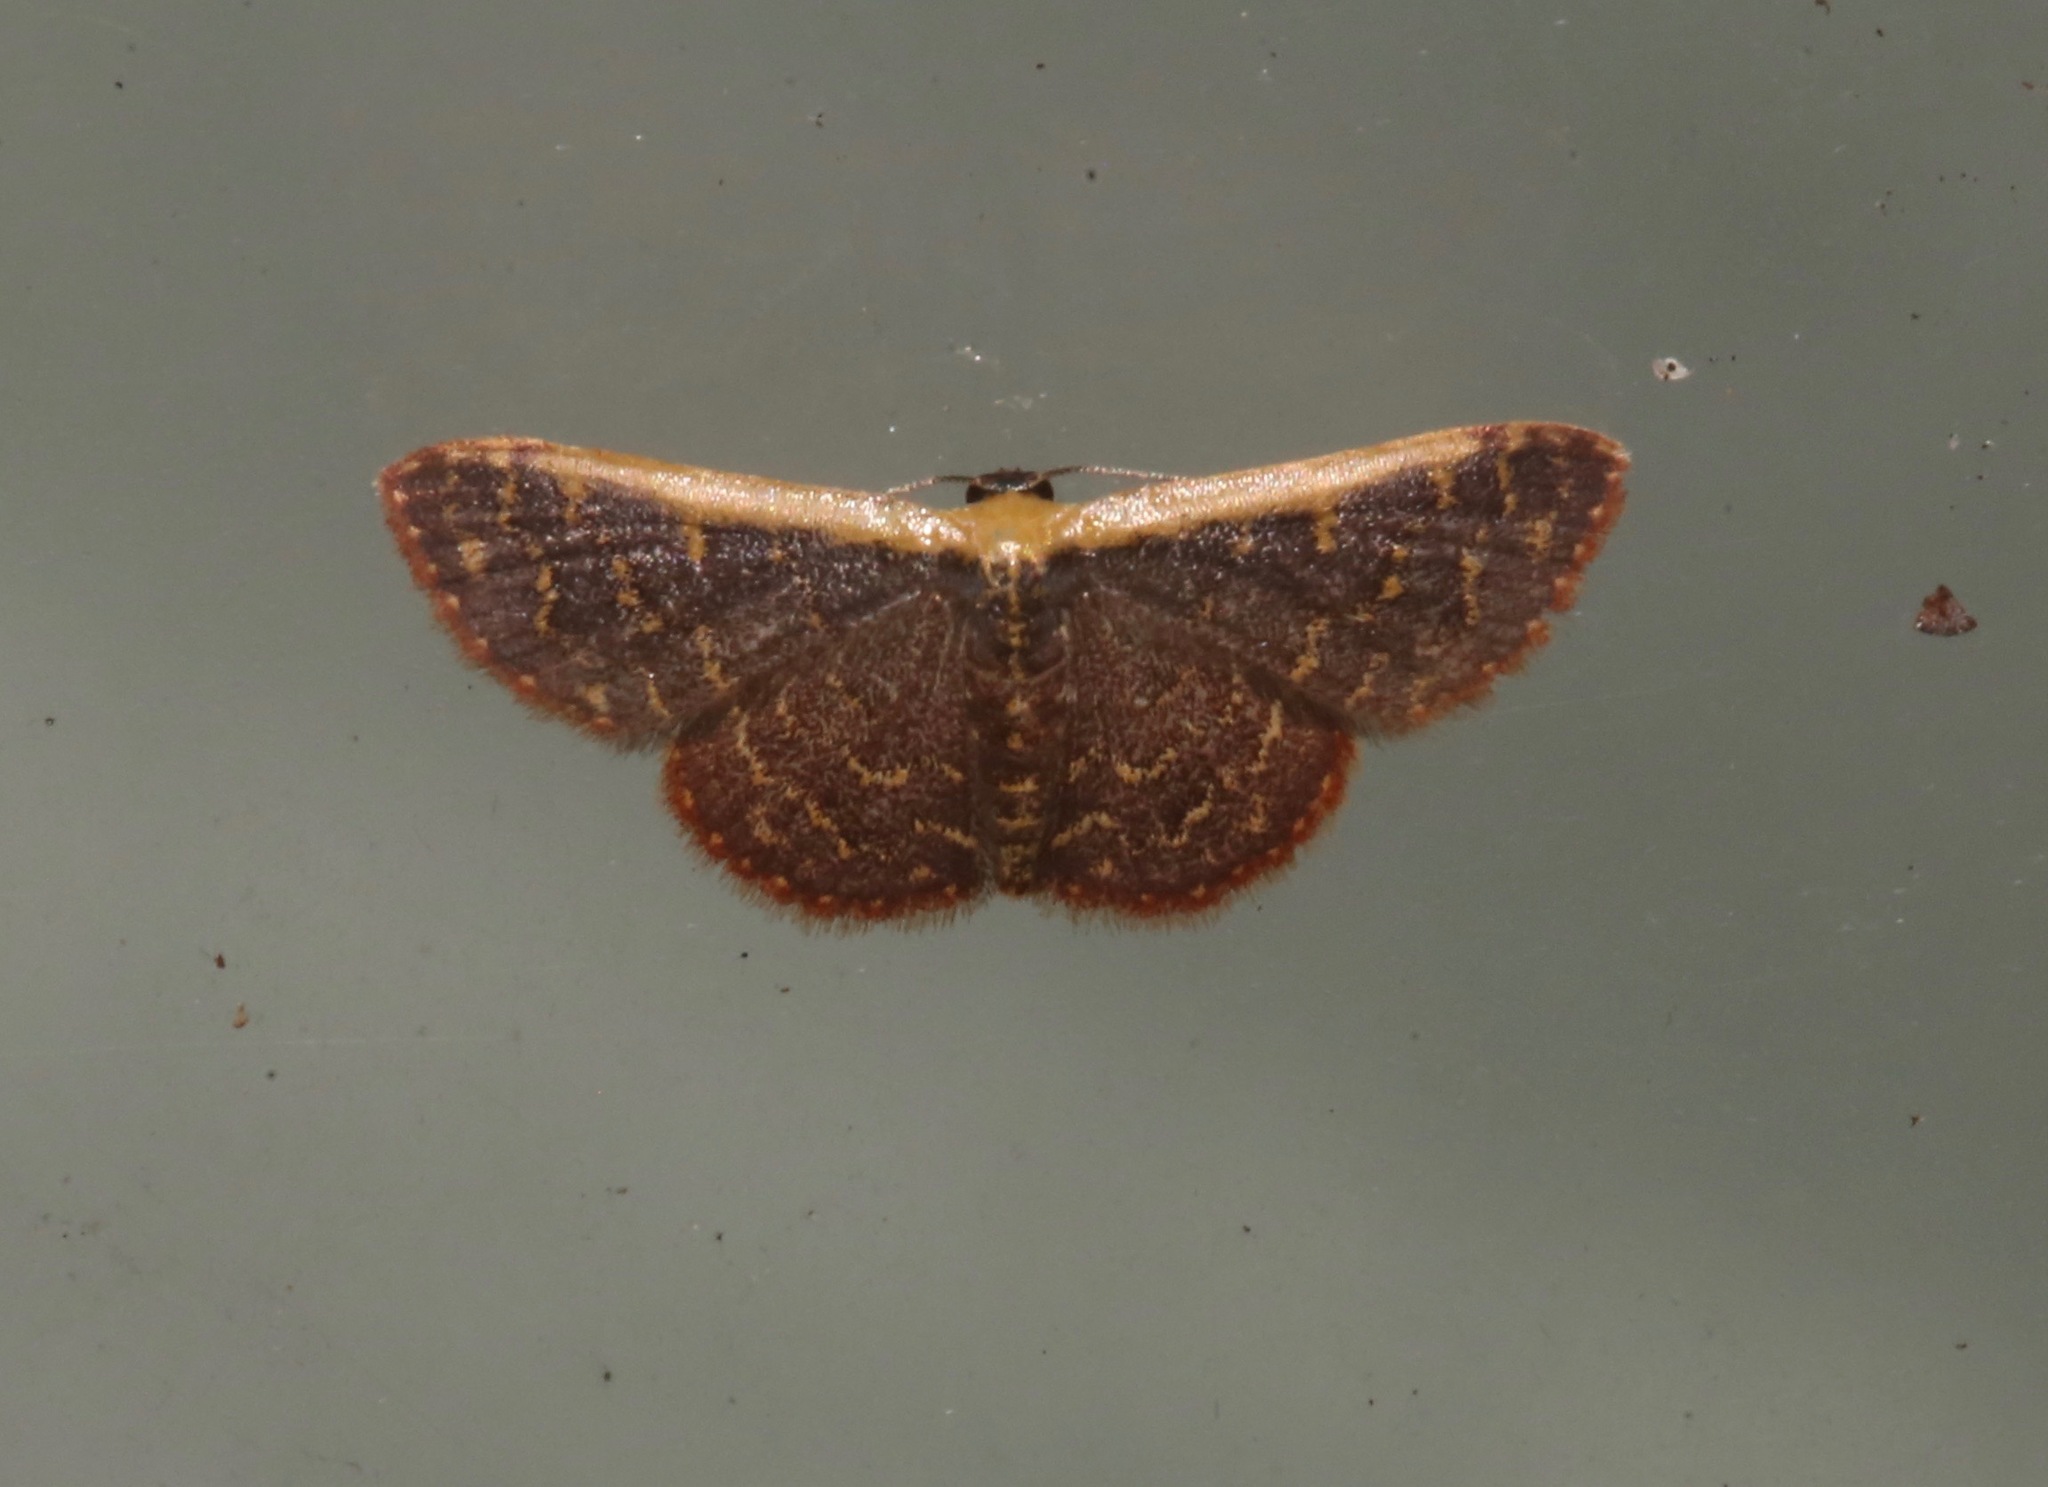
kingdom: Animalia
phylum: Arthropoda
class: Insecta
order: Lepidoptera
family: Geometridae
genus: Leptostales
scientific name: Leptostales crossii
